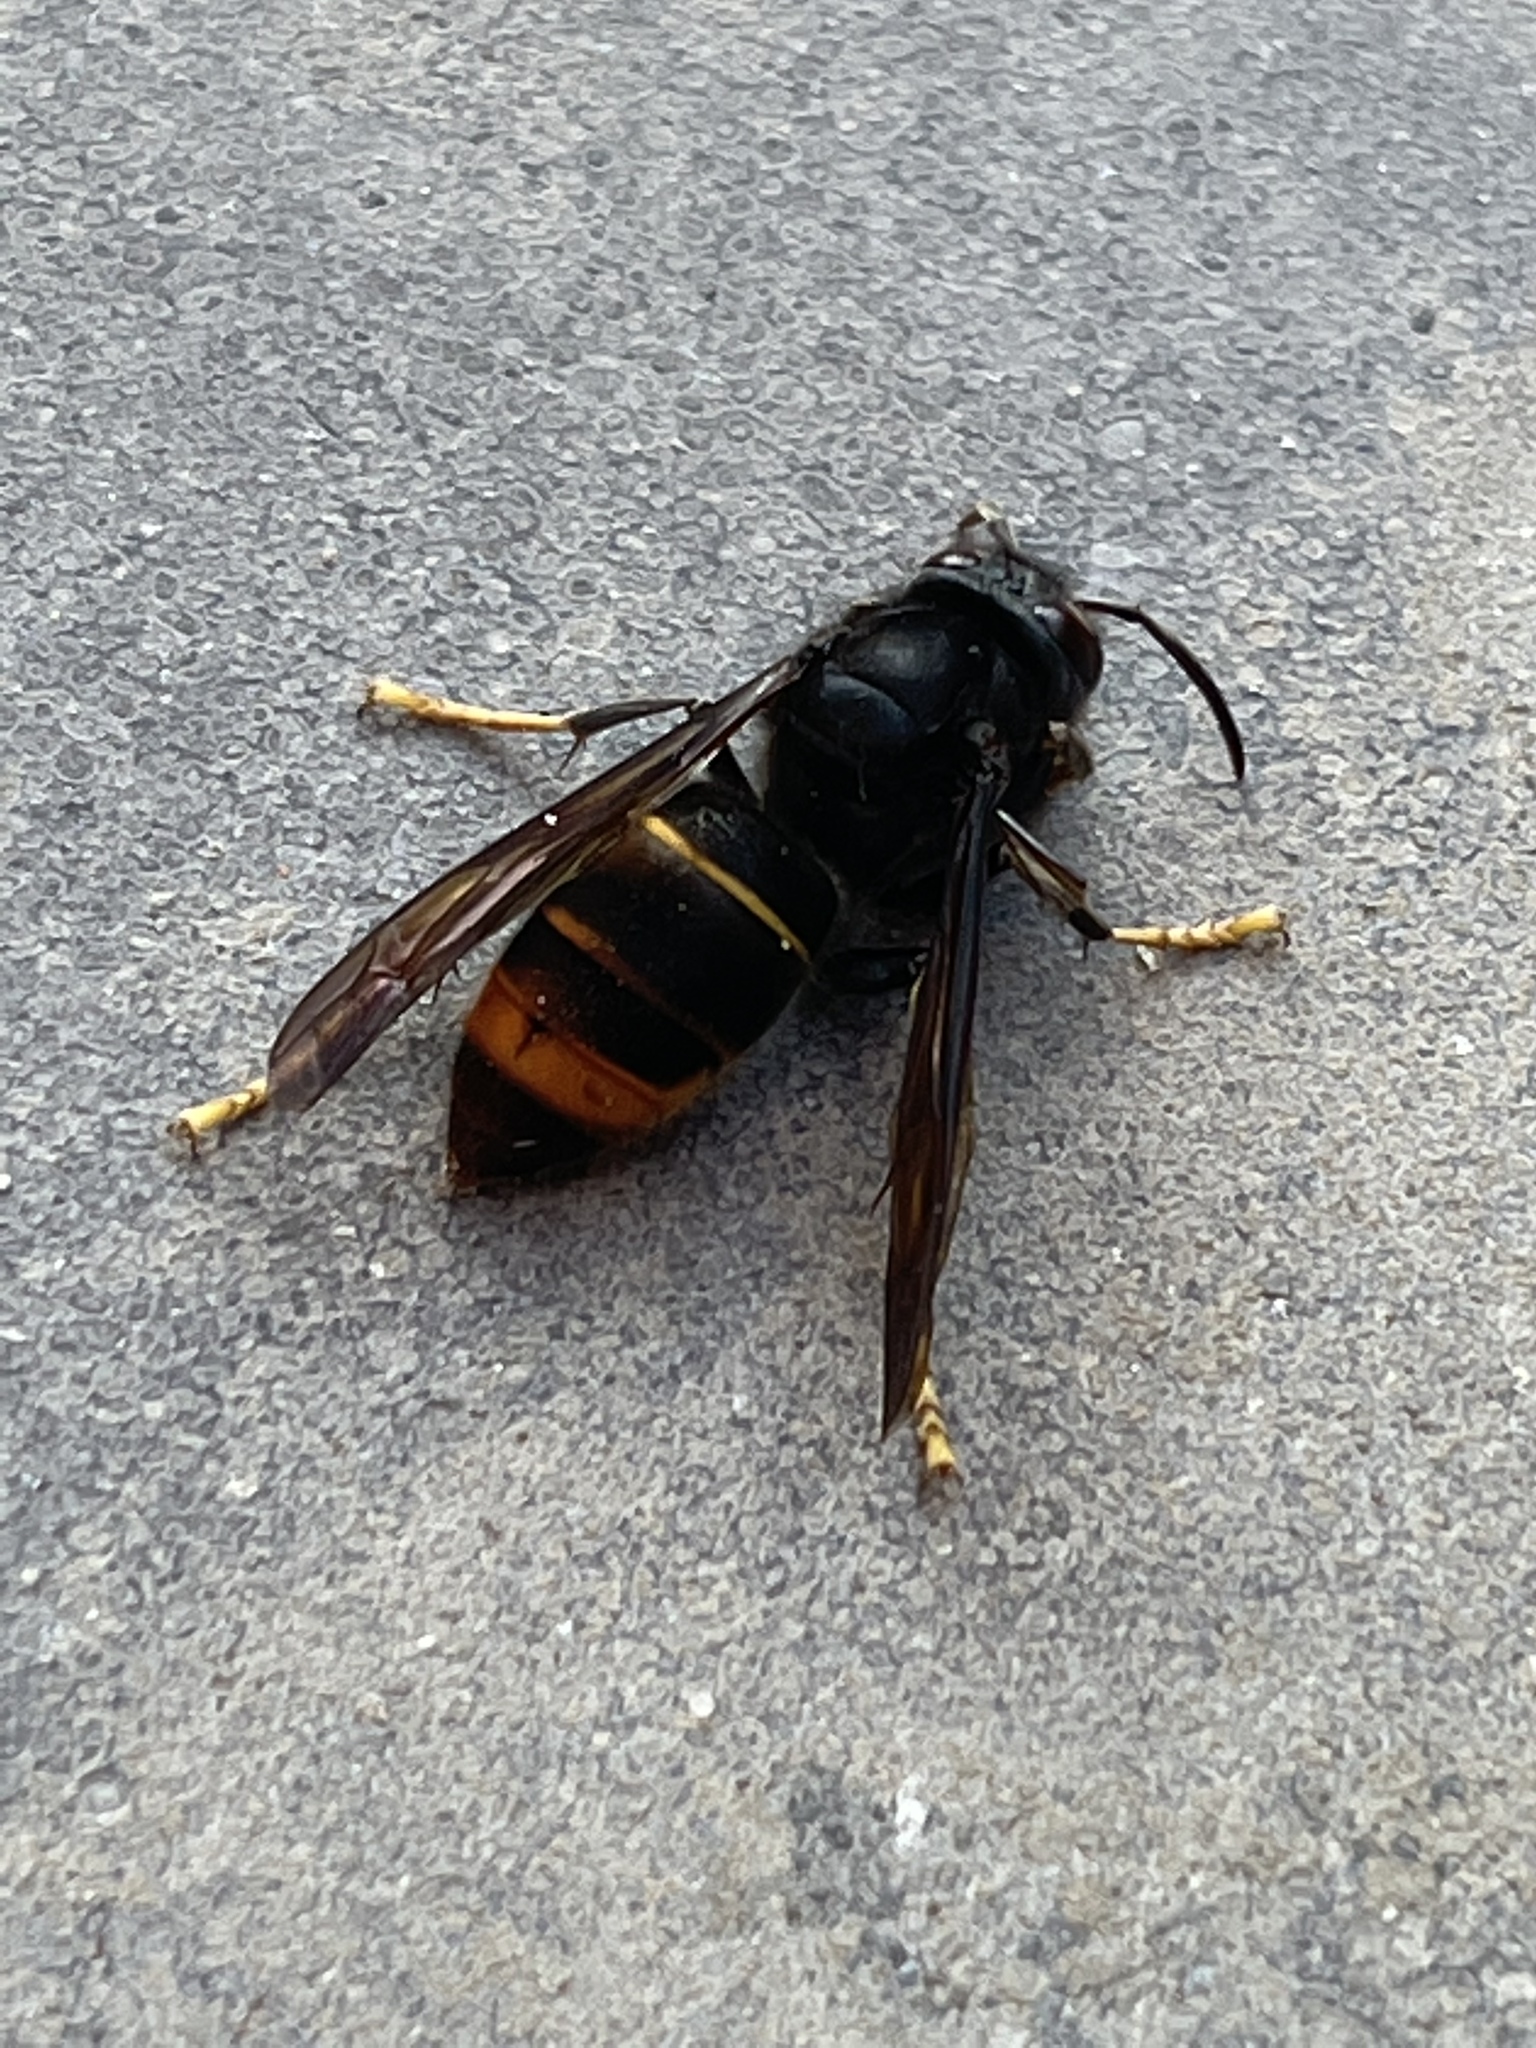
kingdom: Animalia
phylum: Arthropoda
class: Insecta
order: Hymenoptera
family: Vespidae
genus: Vespa
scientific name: Vespa velutina
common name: Asian hornet
